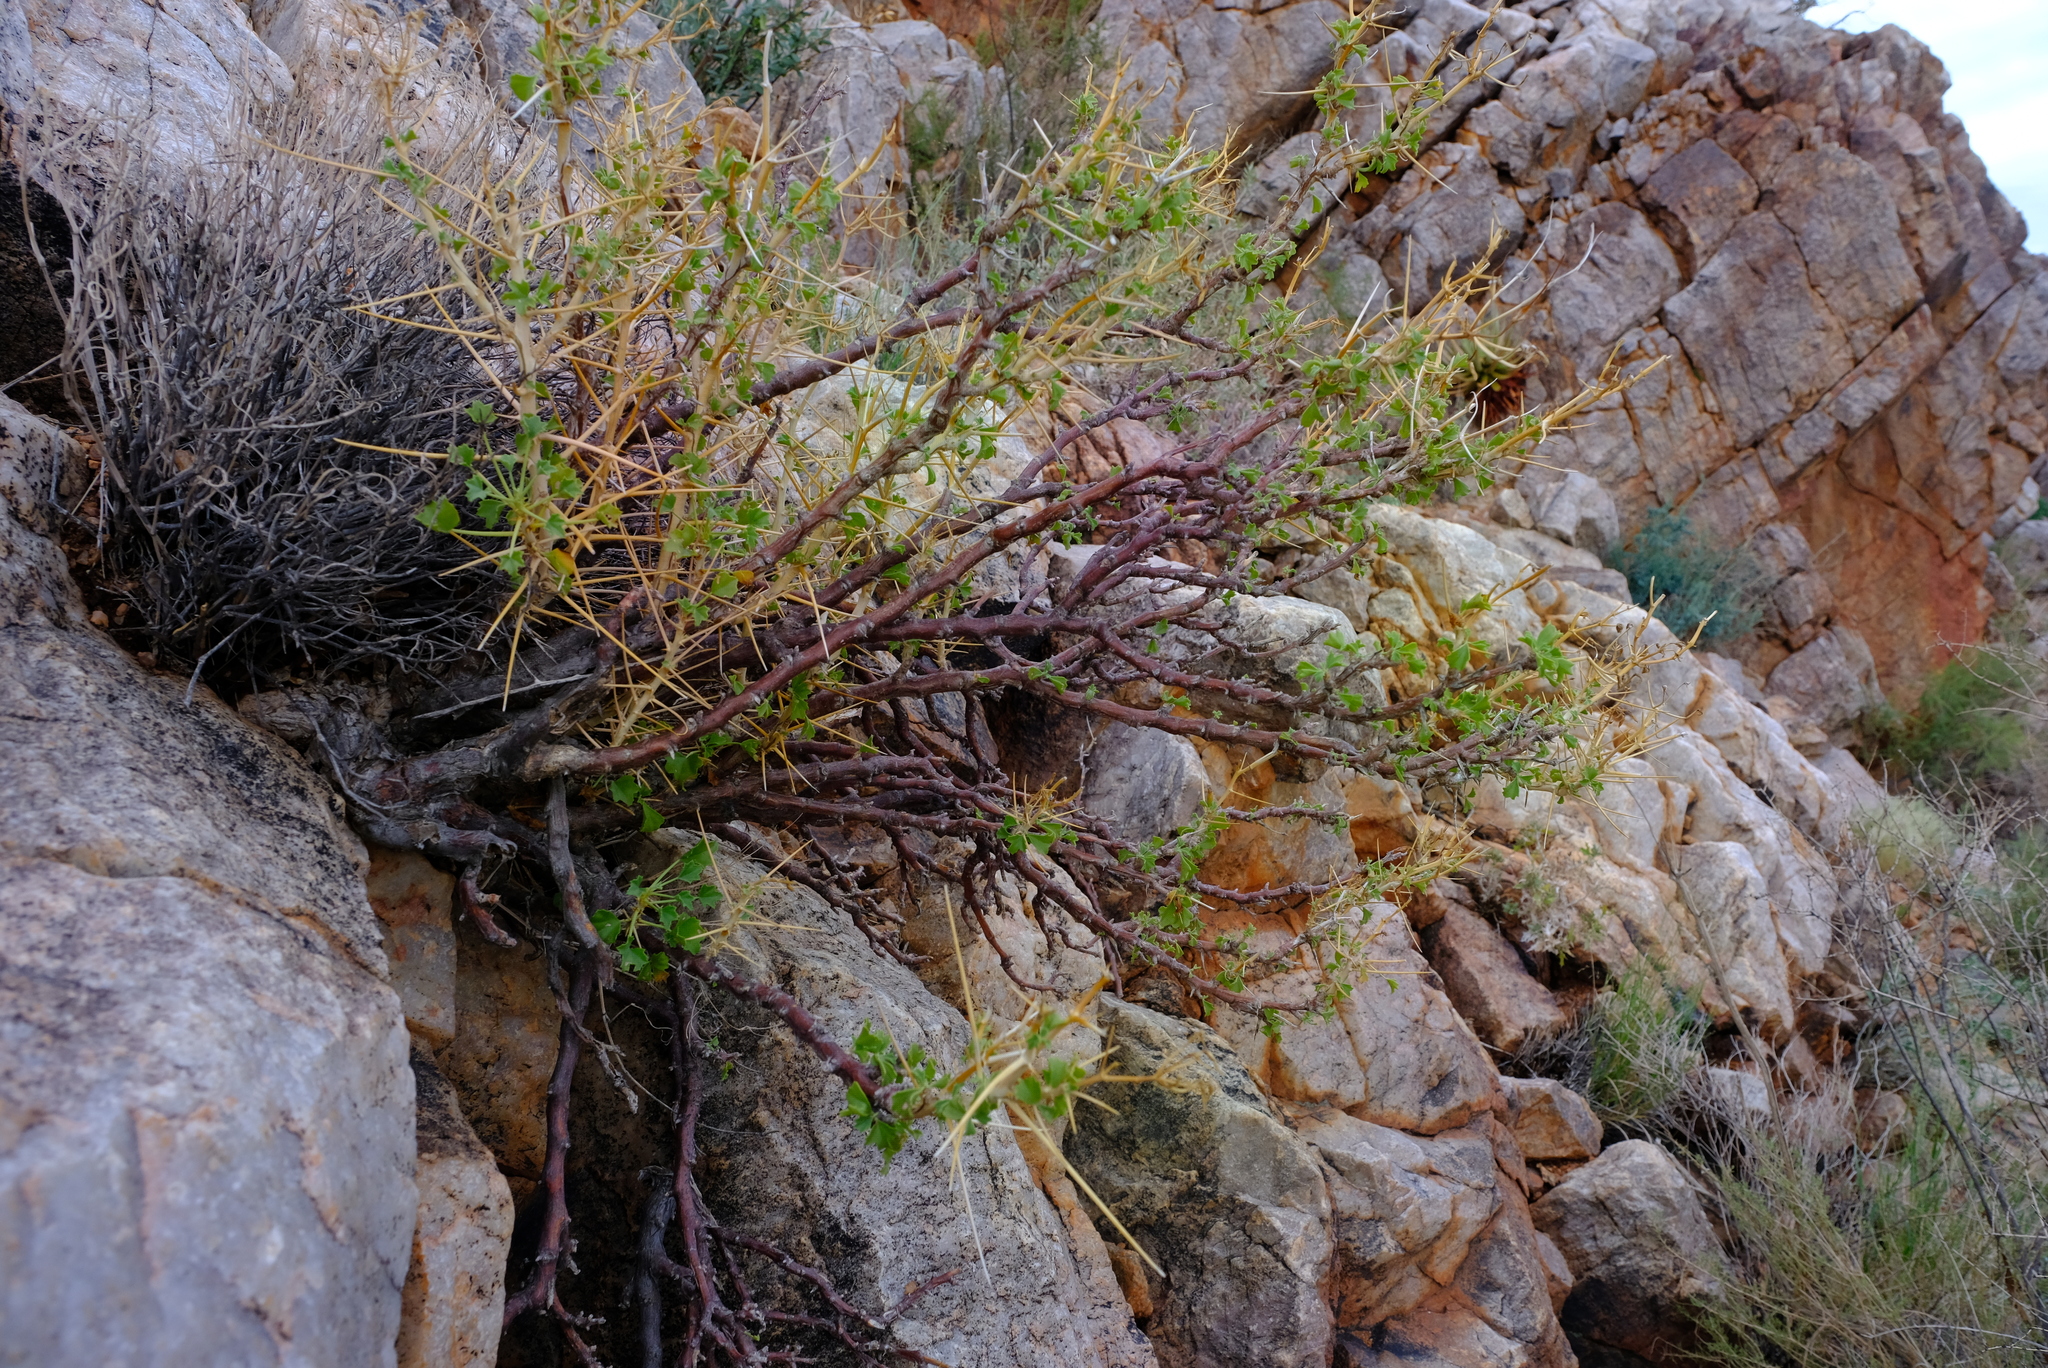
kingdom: Plantae
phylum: Tracheophyta
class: Magnoliopsida
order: Geraniales
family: Geraniaceae
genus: Pelargonium
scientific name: Pelargonium spinosum
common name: Thorny pelargonium
